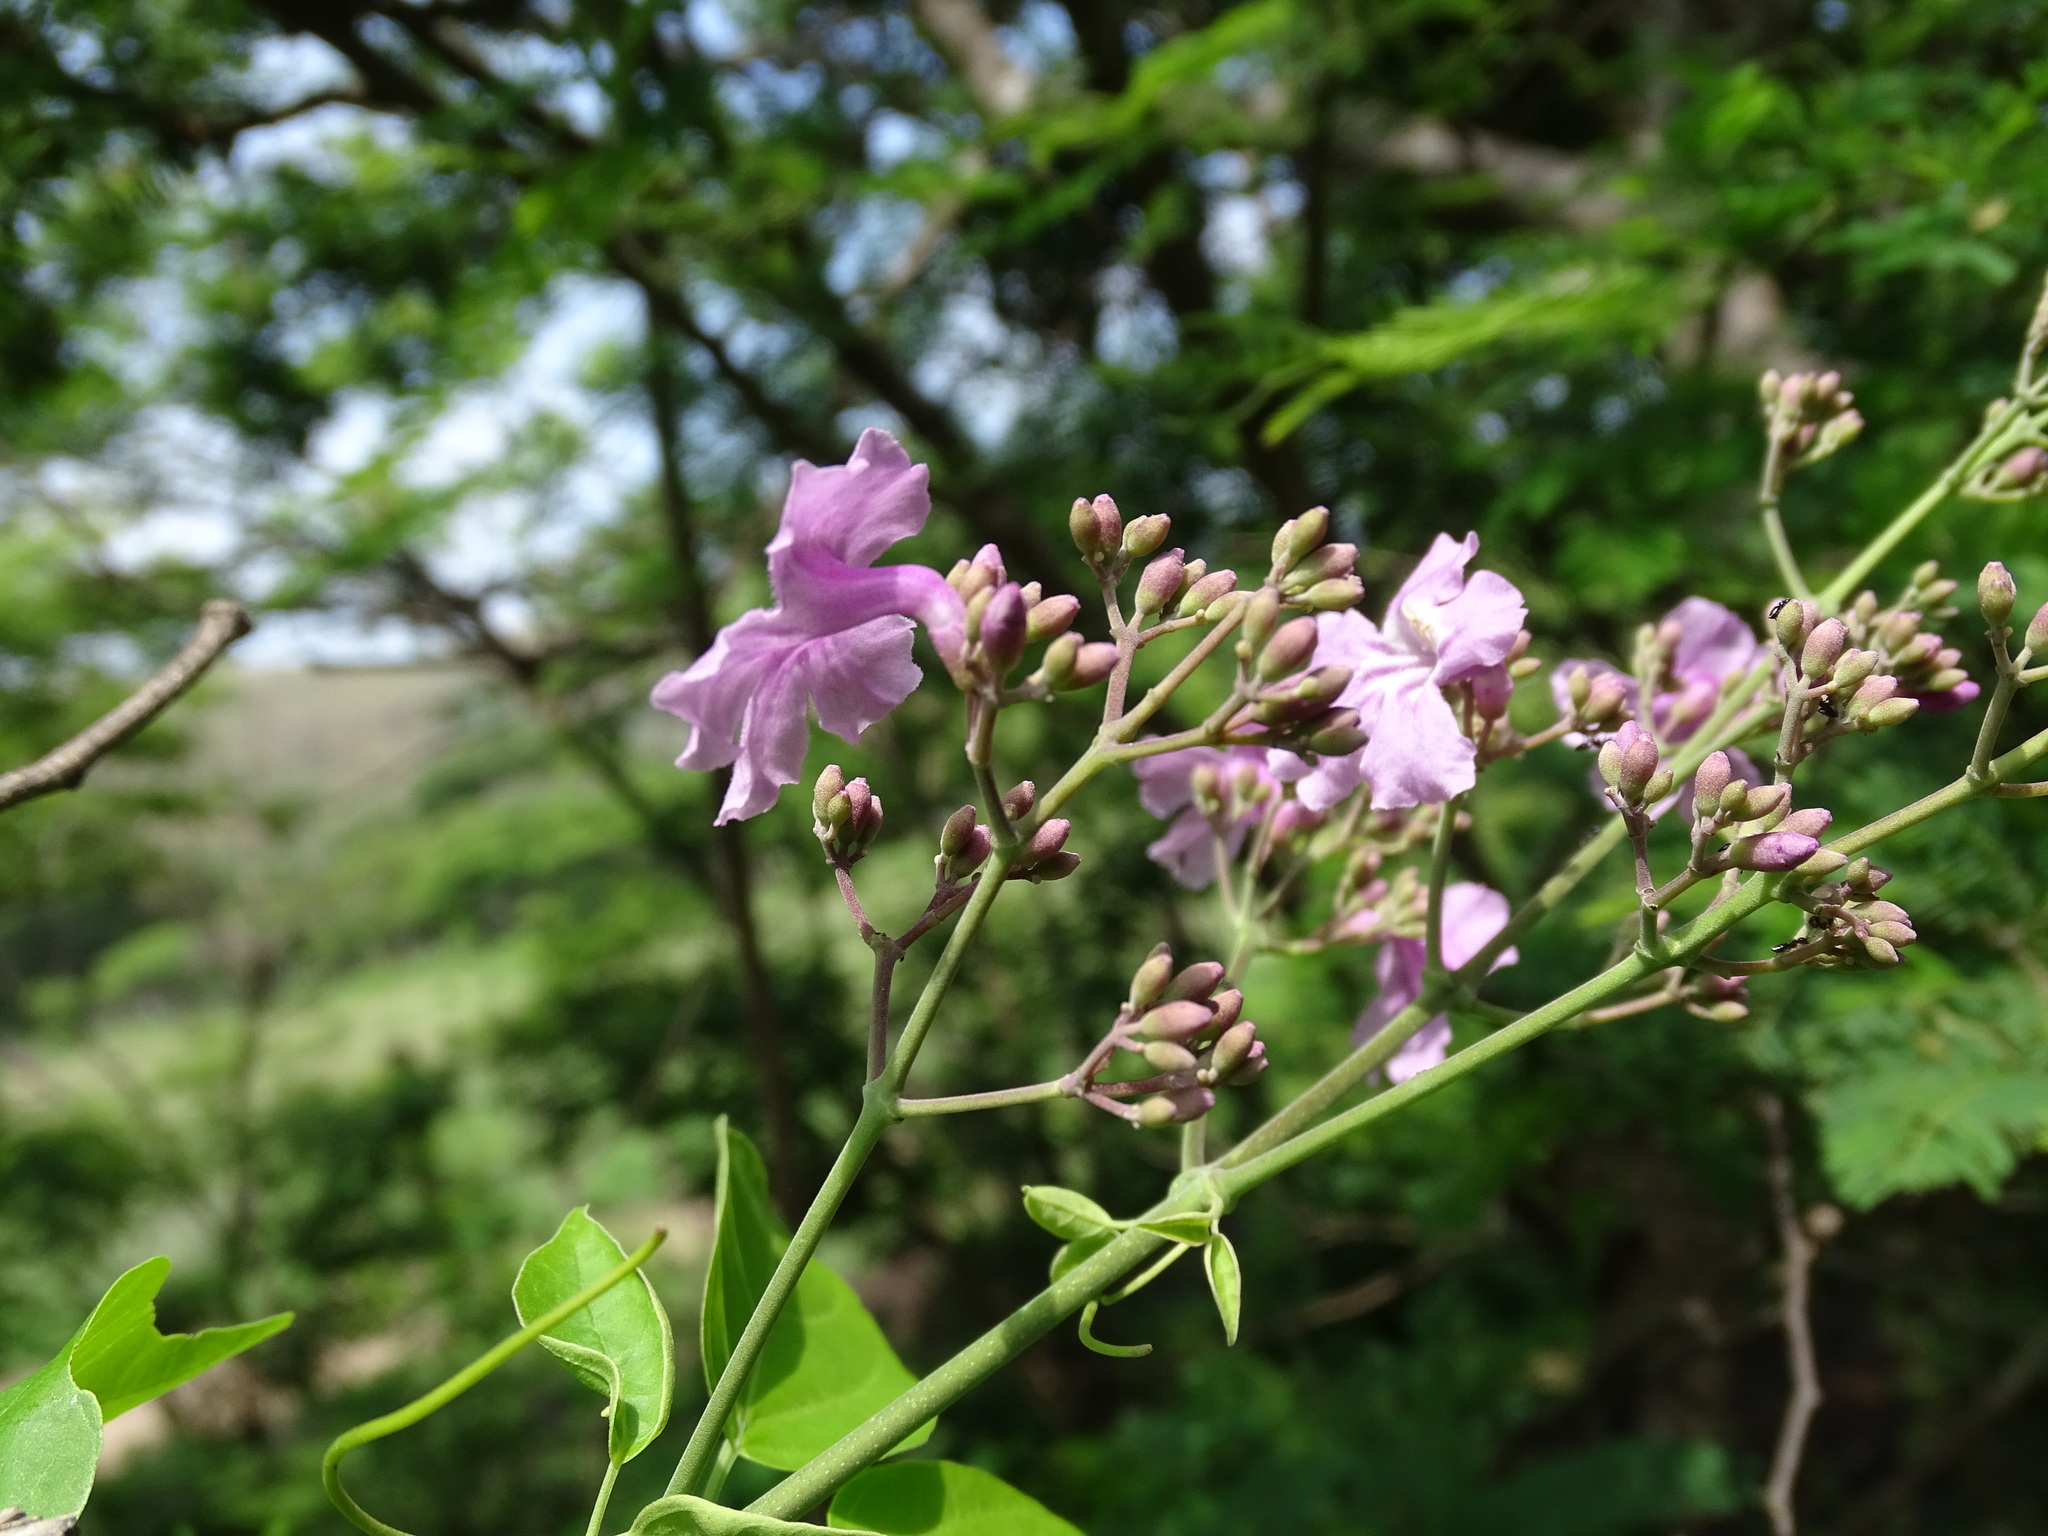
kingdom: Plantae
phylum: Tracheophyta
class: Magnoliopsida
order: Lamiales
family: Bignoniaceae
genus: Fridericia
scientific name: Fridericia pubescens
